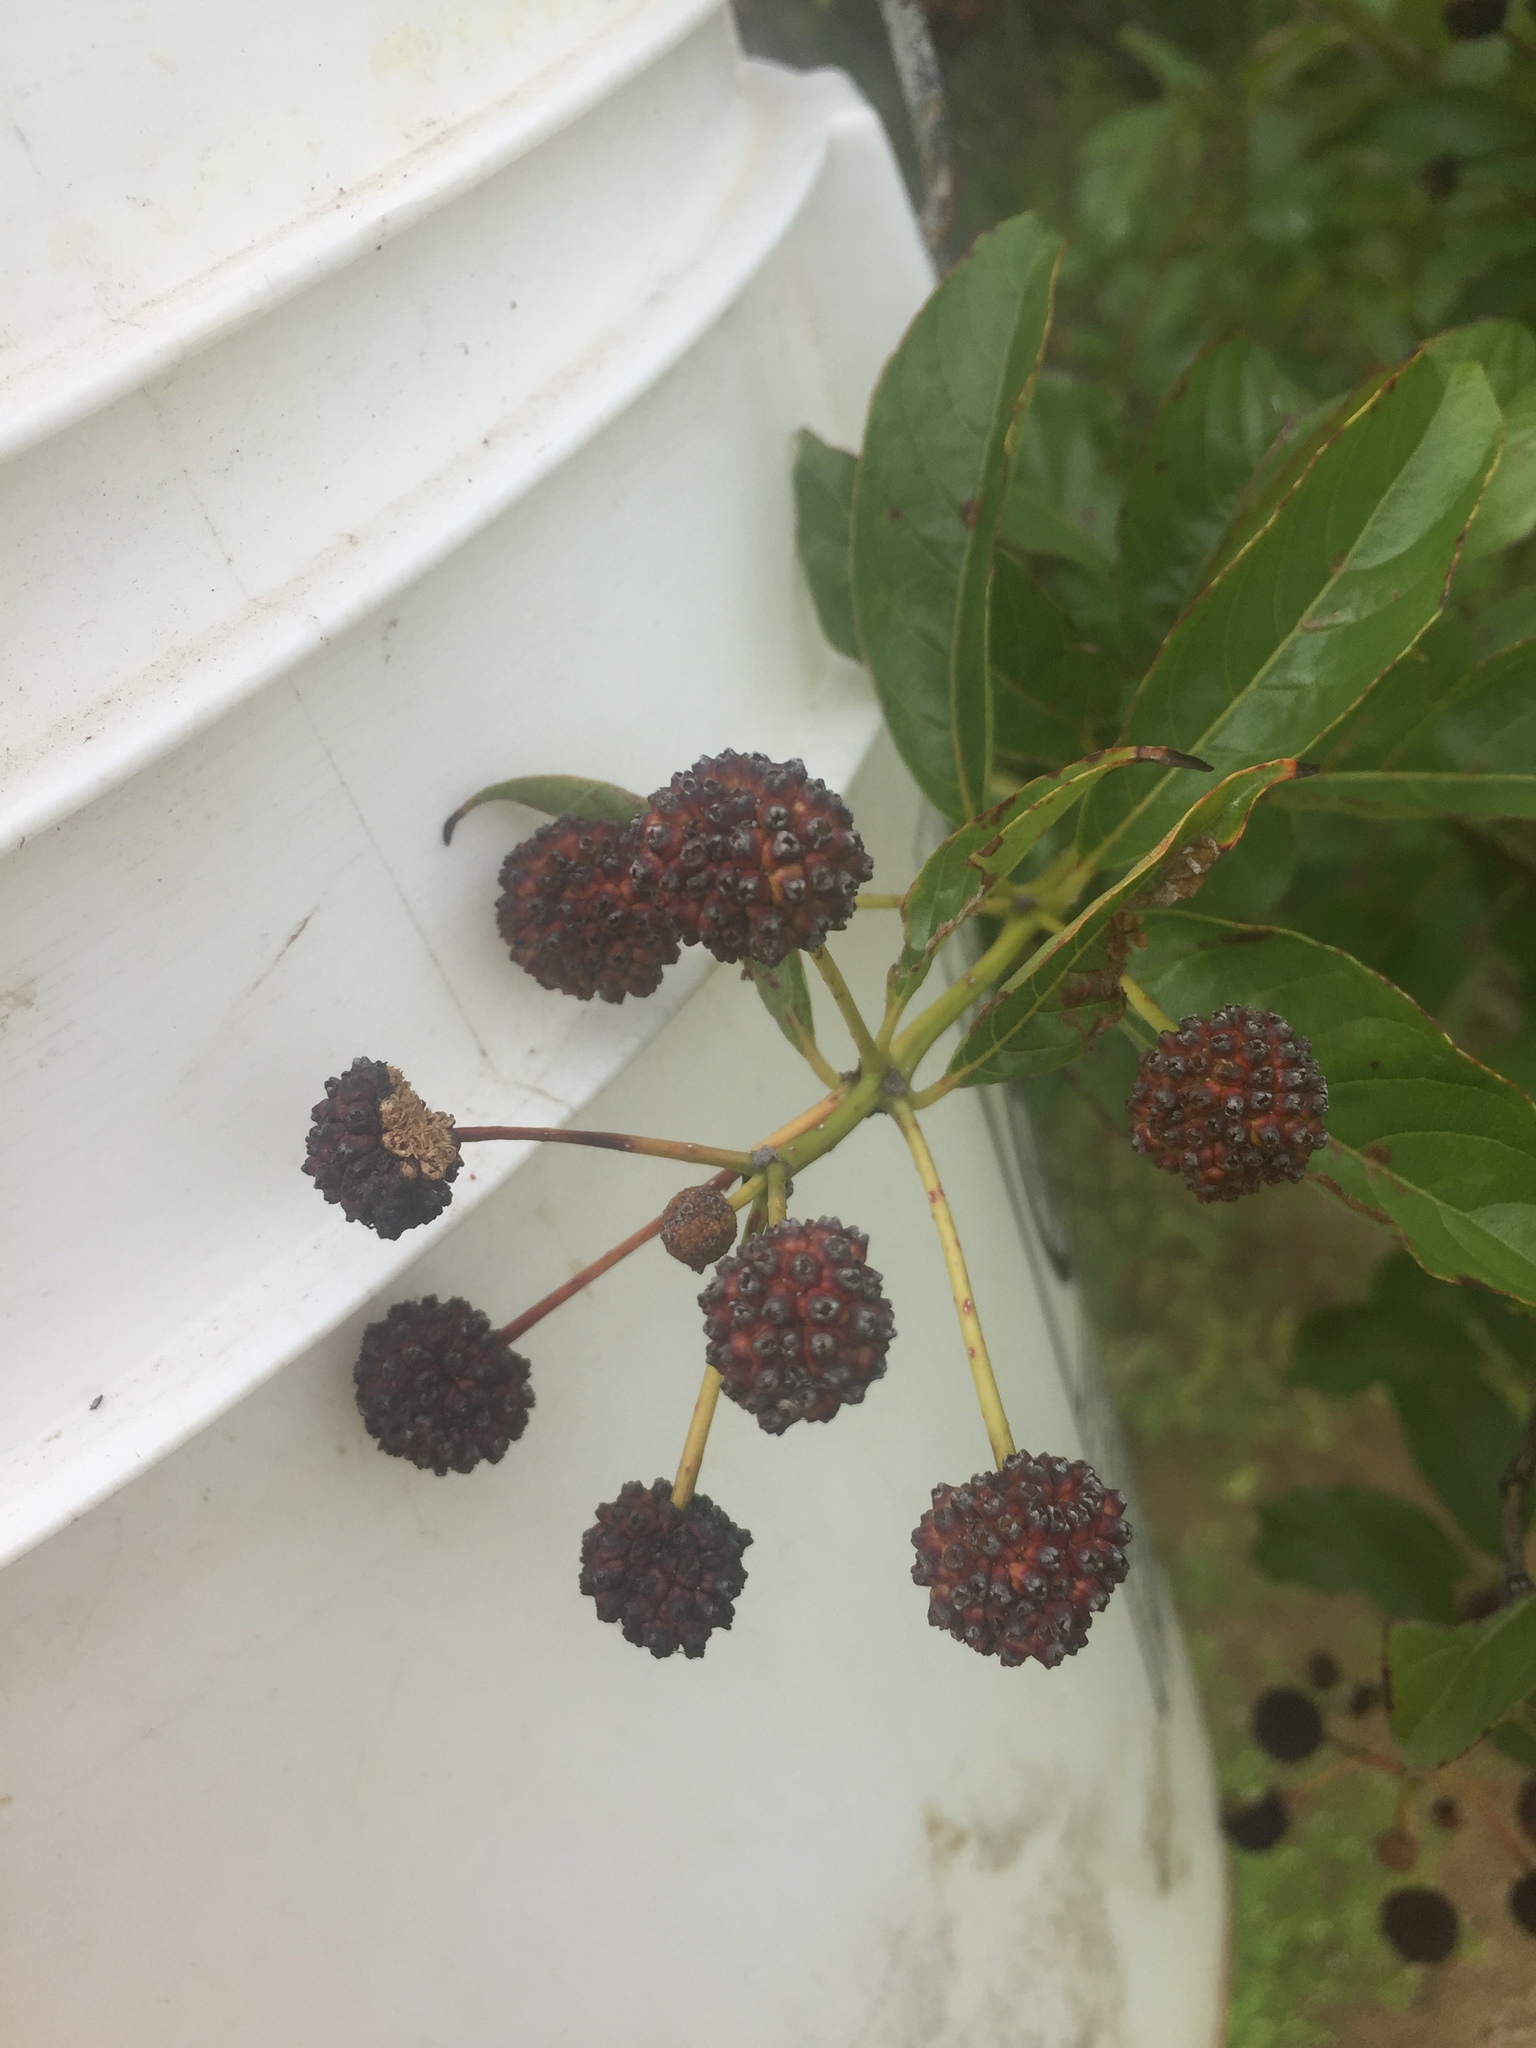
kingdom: Plantae
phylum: Tracheophyta
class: Magnoliopsida
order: Gentianales
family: Rubiaceae
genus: Cephalanthus
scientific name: Cephalanthus occidentalis
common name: Button-willow
